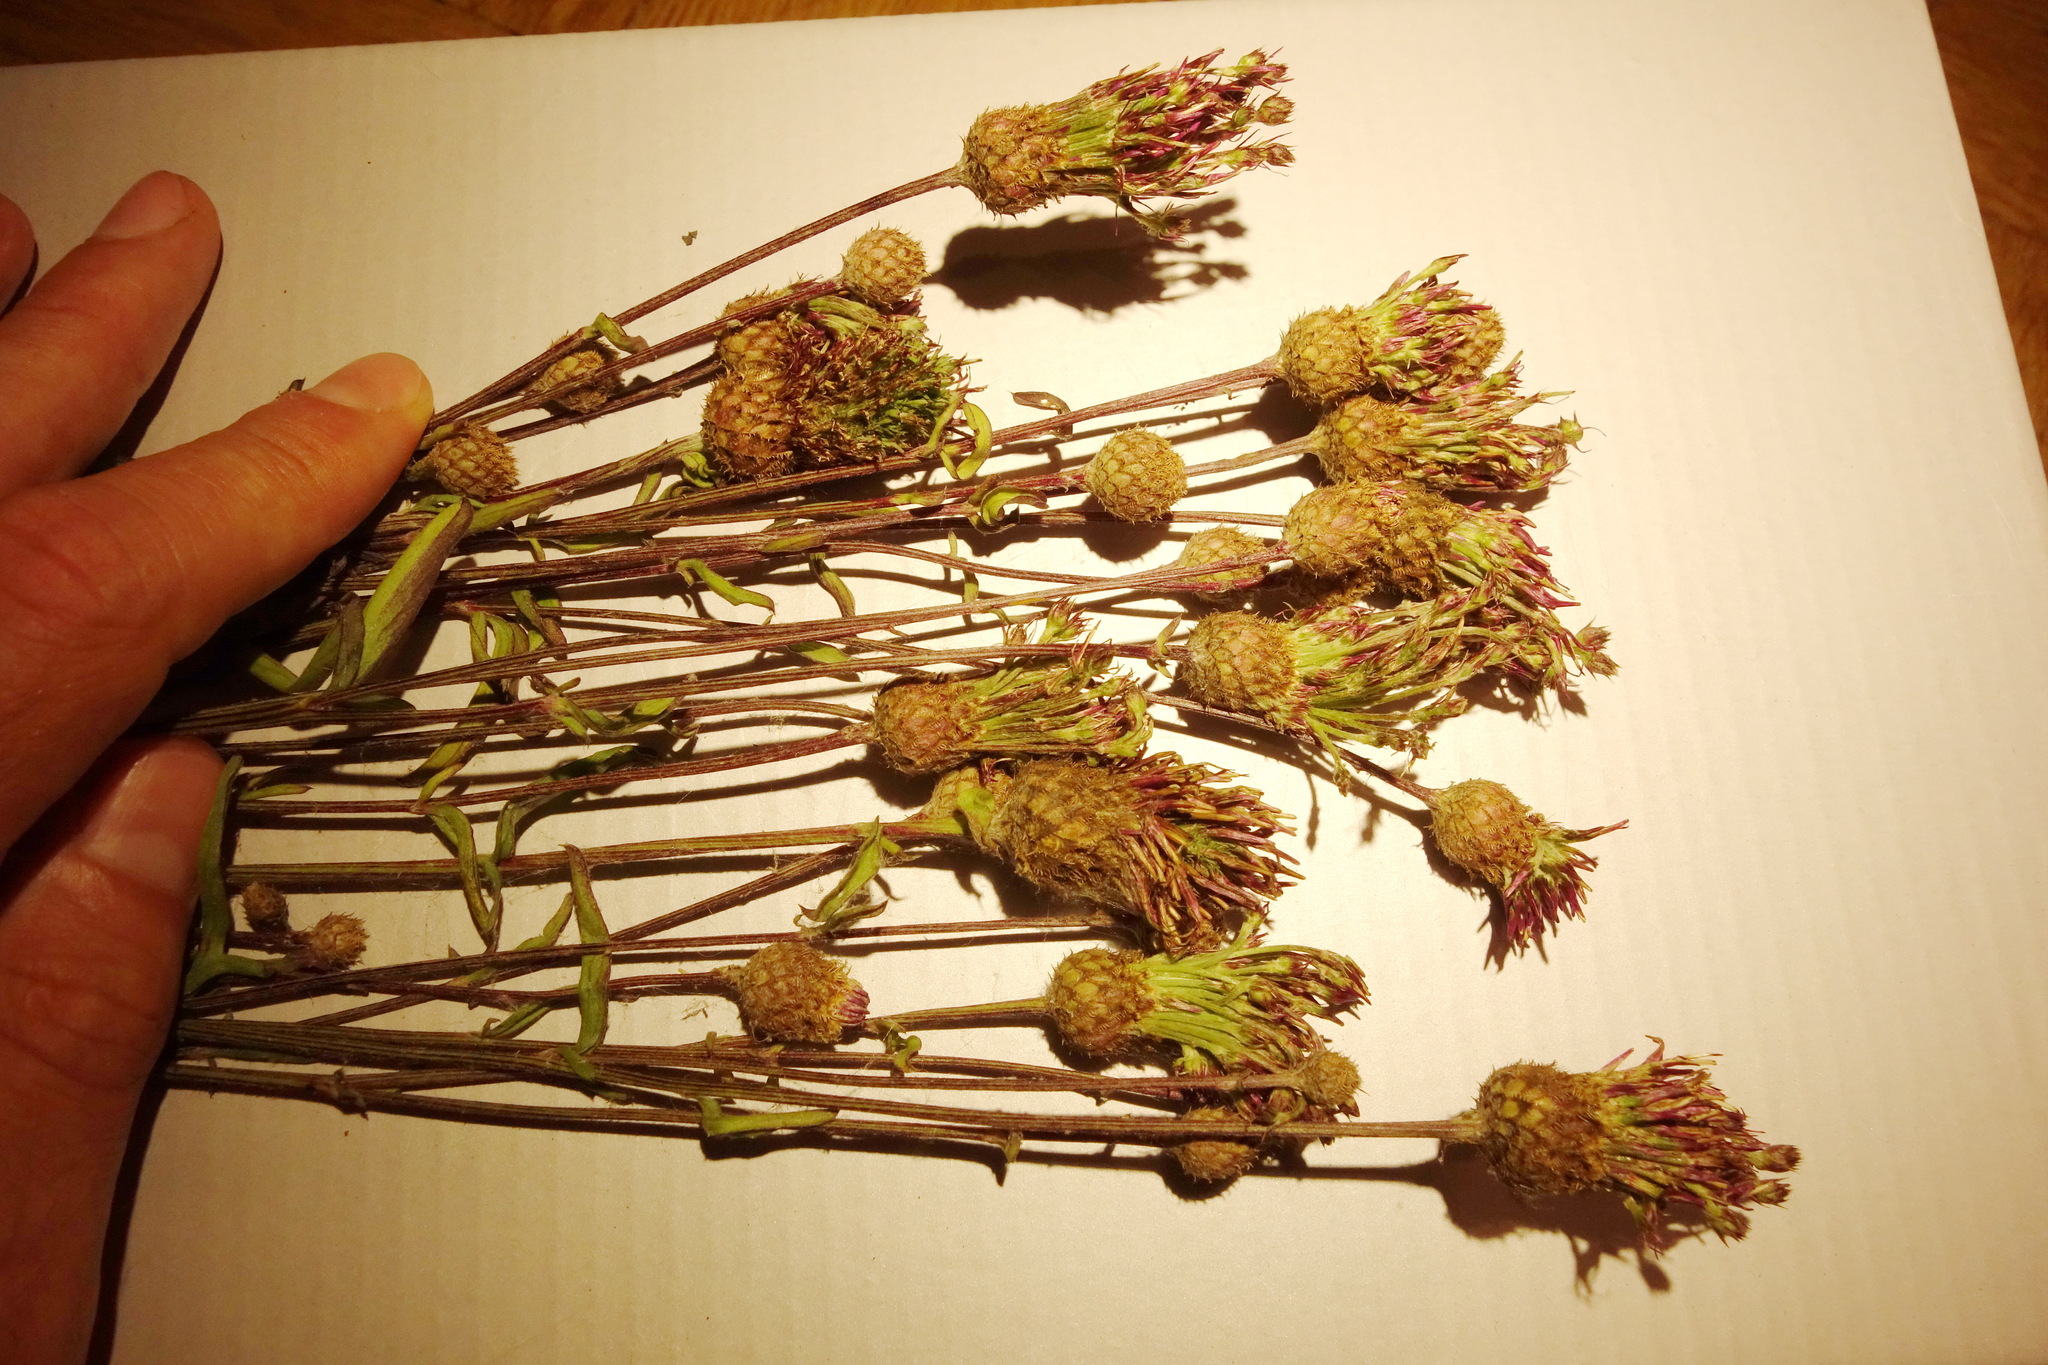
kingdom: Plantae
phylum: Tracheophyta
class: Magnoliopsida
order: Asterales
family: Asteraceae
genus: Centaurea
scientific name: Centaurea scabiosa
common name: Greater knapweed
